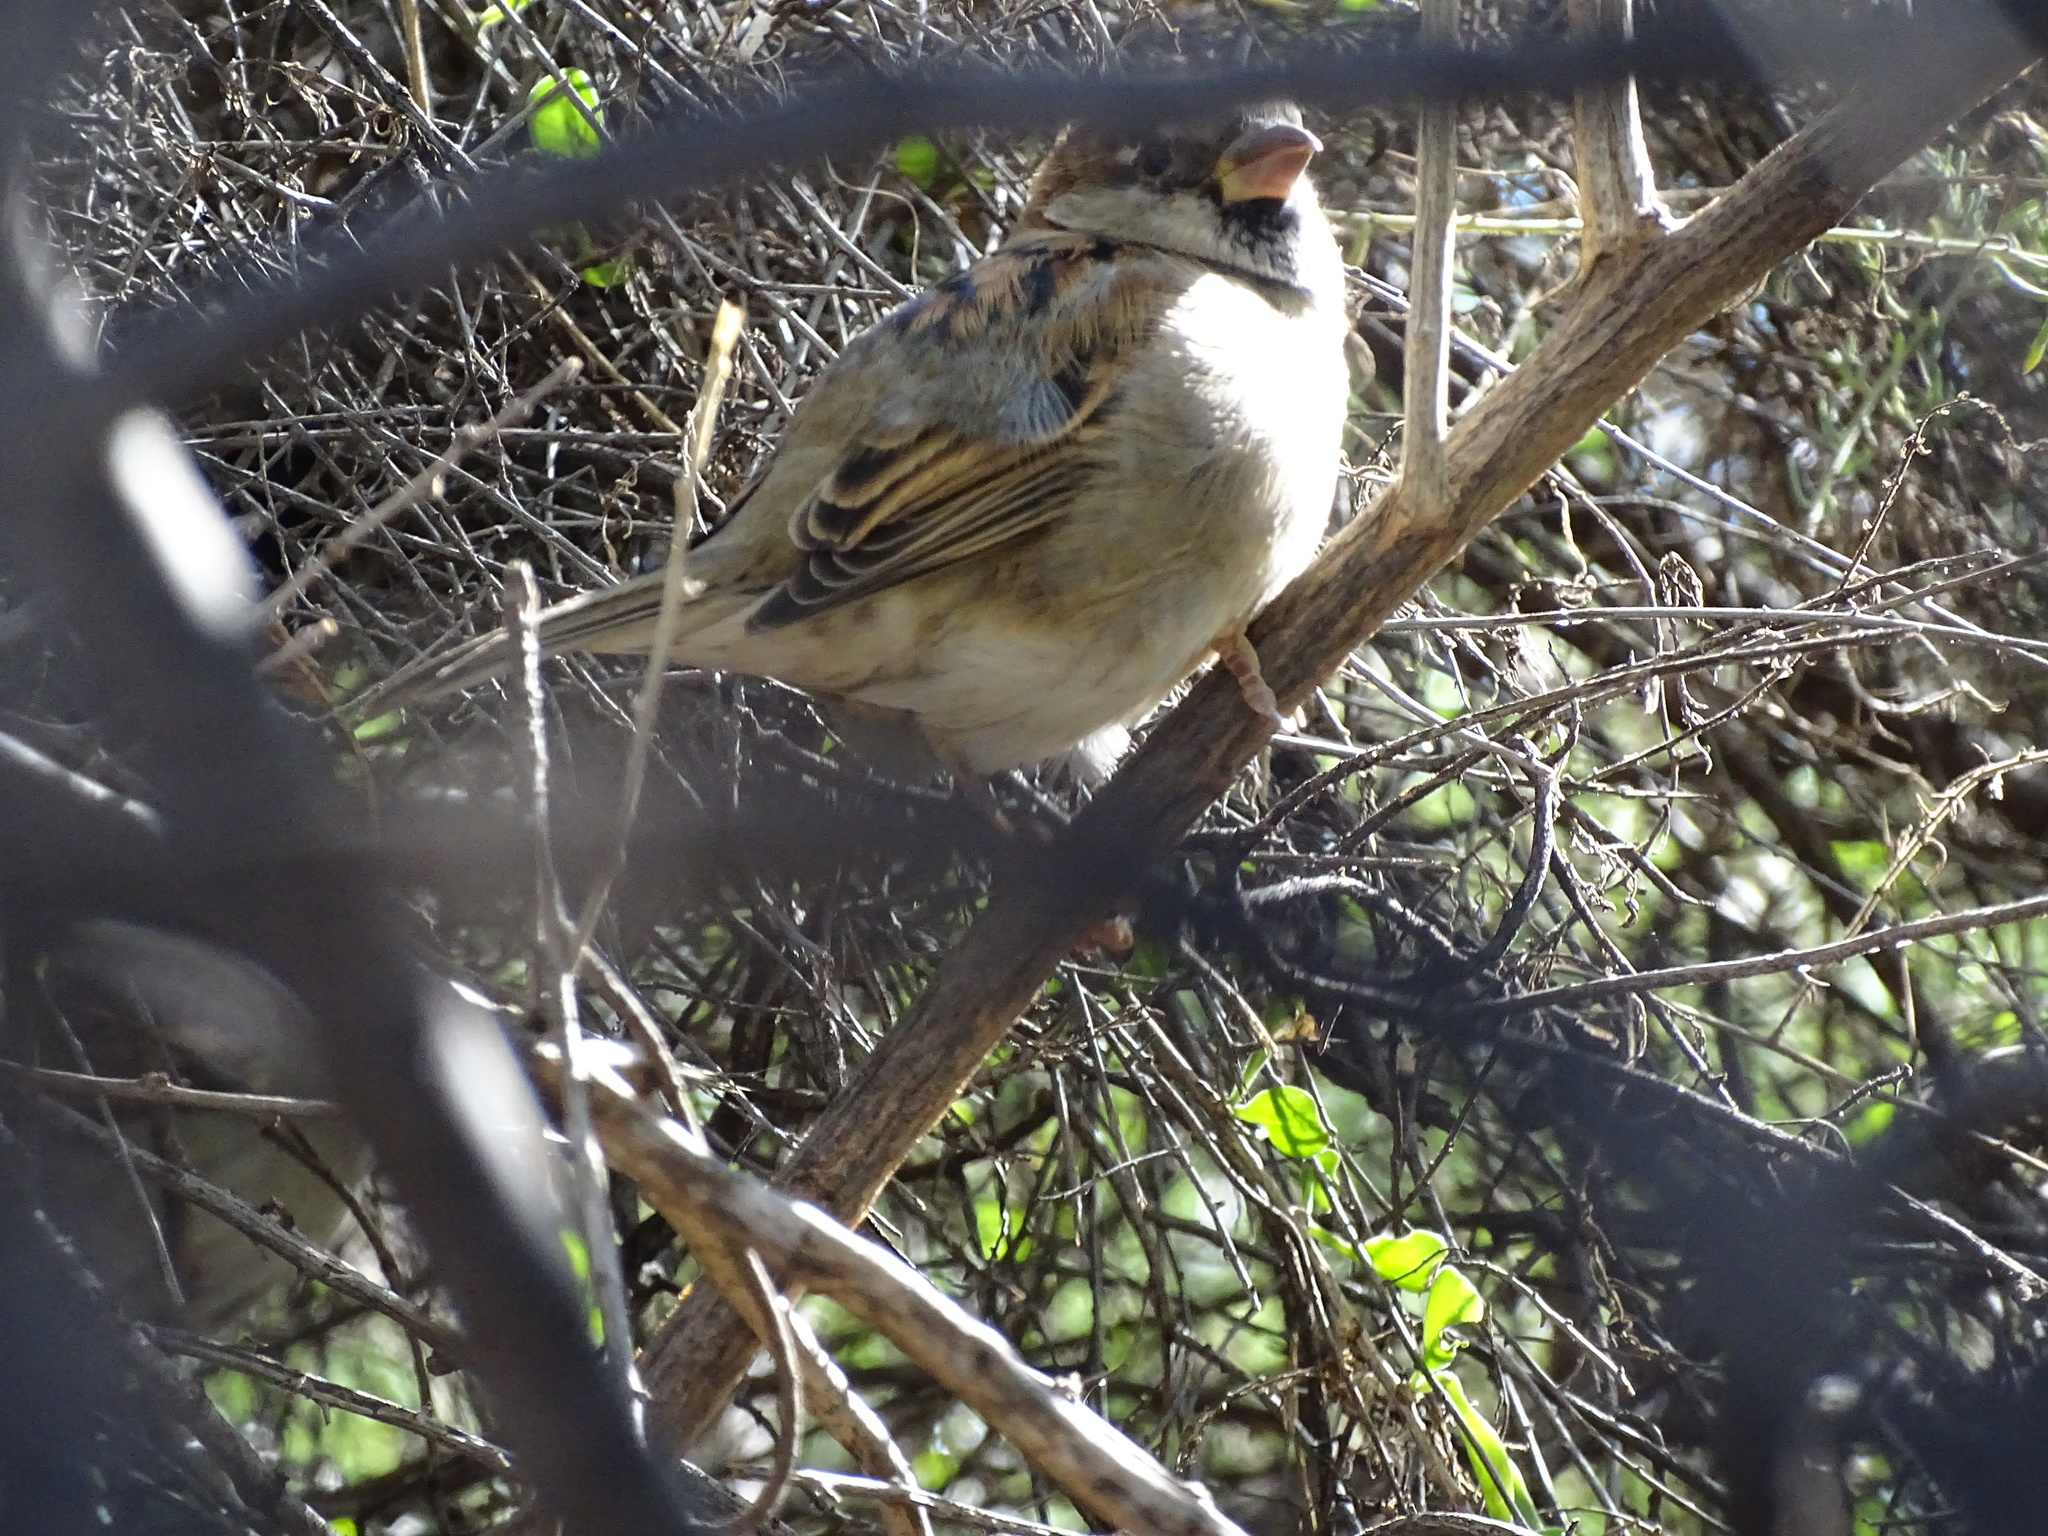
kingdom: Animalia
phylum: Chordata
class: Aves
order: Passeriformes
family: Passeridae
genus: Passer
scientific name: Passer domesticus
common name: House sparrow
